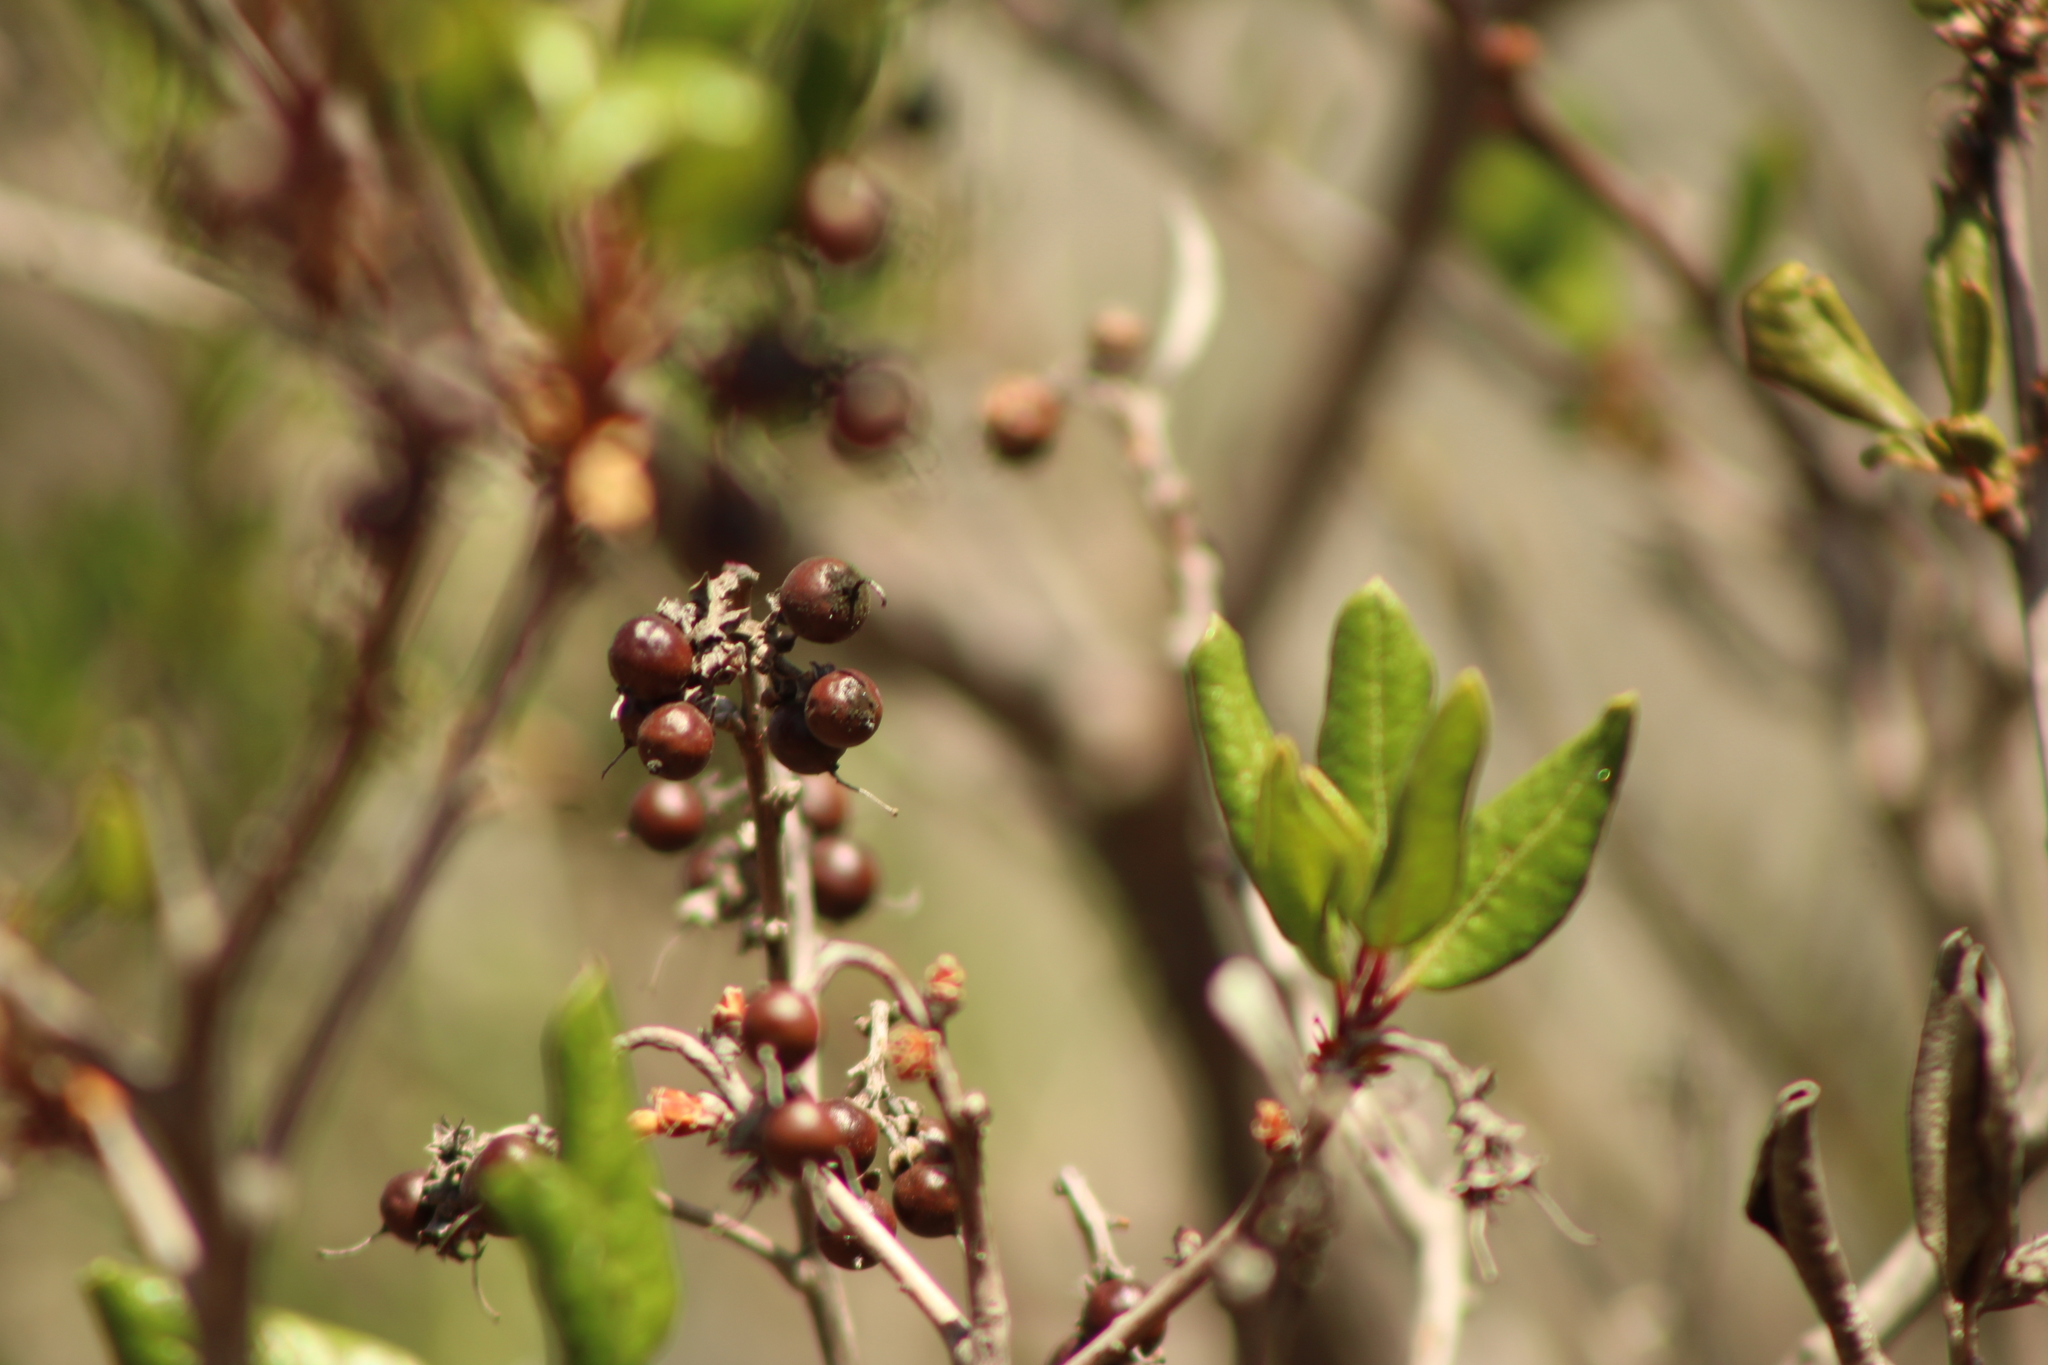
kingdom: Plantae
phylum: Tracheophyta
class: Magnoliopsida
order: Ericales
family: Ericaceae
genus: Arctostaphylos
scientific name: Arctostaphylos bicolor
